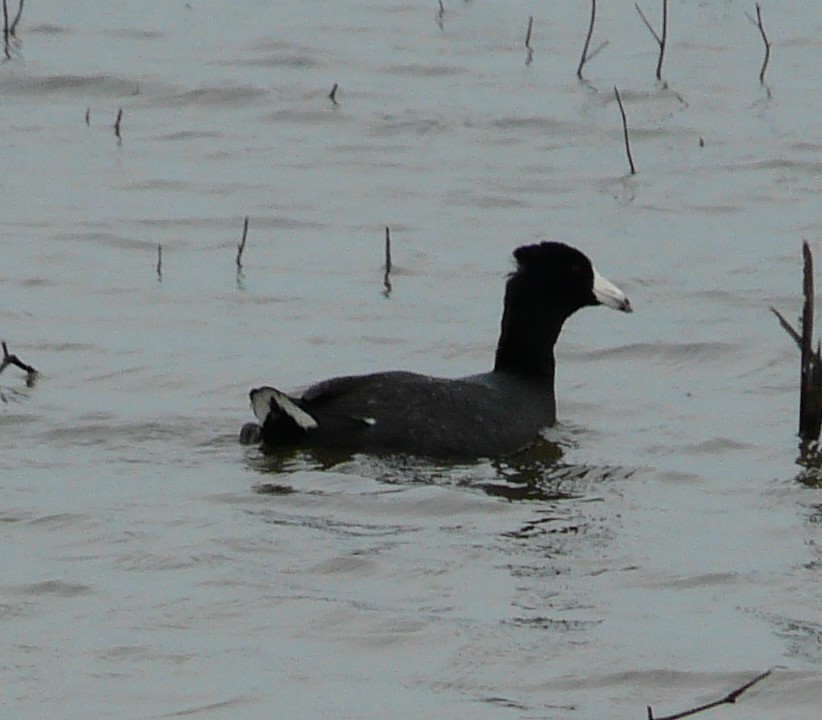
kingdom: Animalia
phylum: Chordata
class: Aves
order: Gruiformes
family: Rallidae
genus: Fulica
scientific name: Fulica americana
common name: American coot
